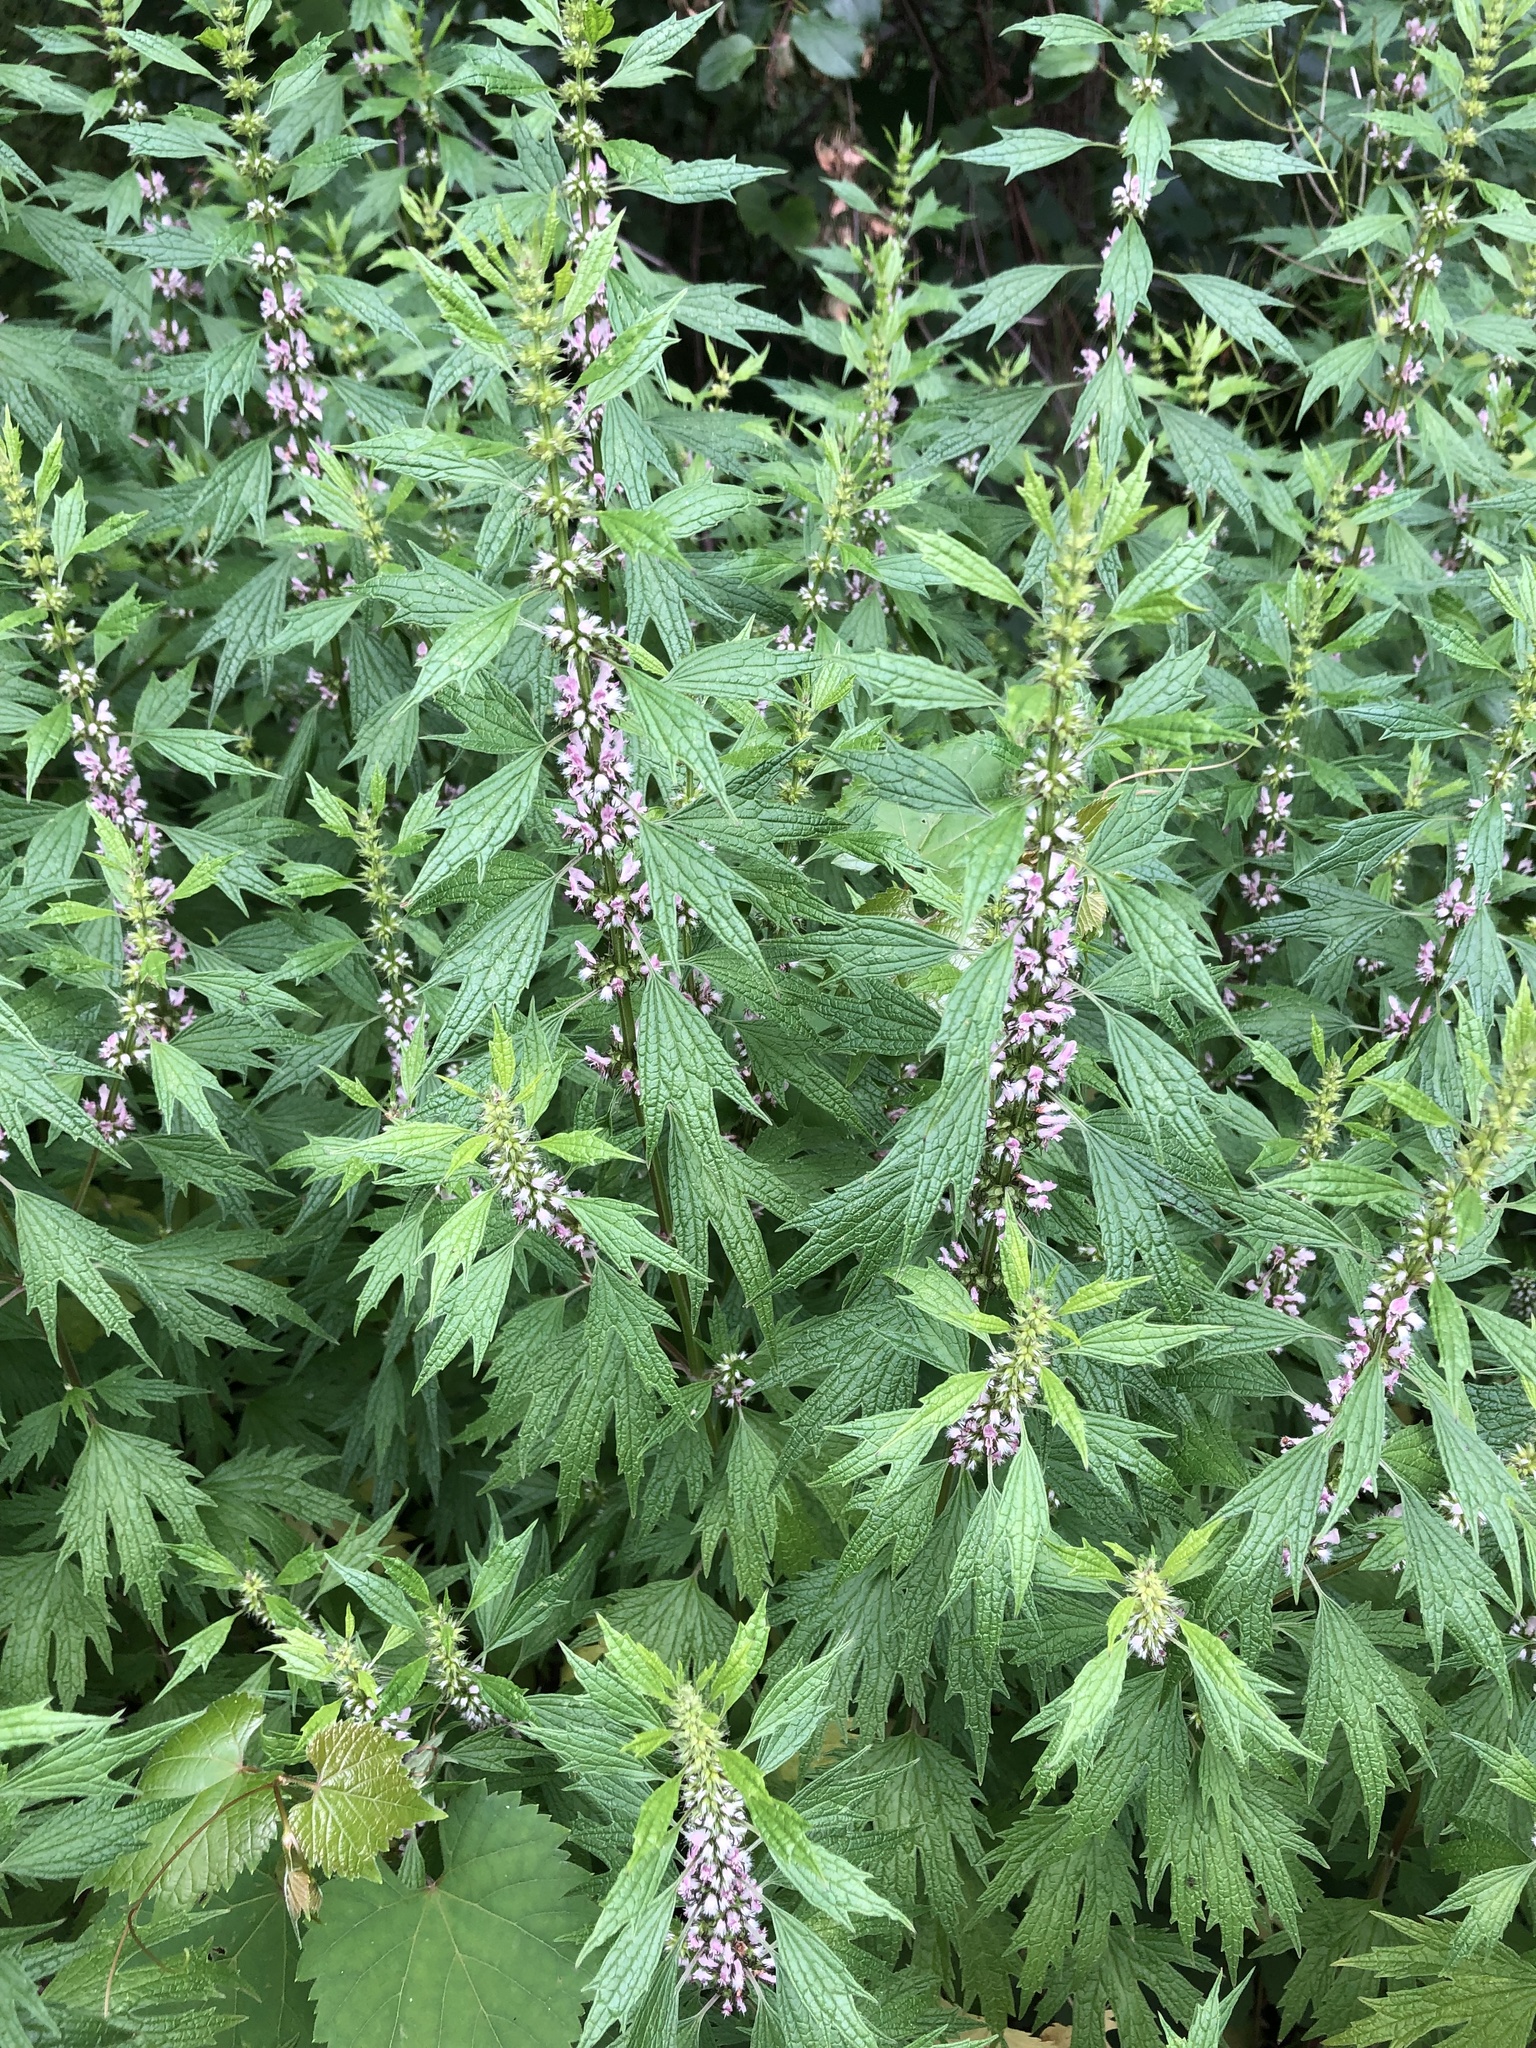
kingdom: Plantae
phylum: Tracheophyta
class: Magnoliopsida
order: Lamiales
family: Lamiaceae
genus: Leonurus
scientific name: Leonurus cardiaca
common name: Motherwort
